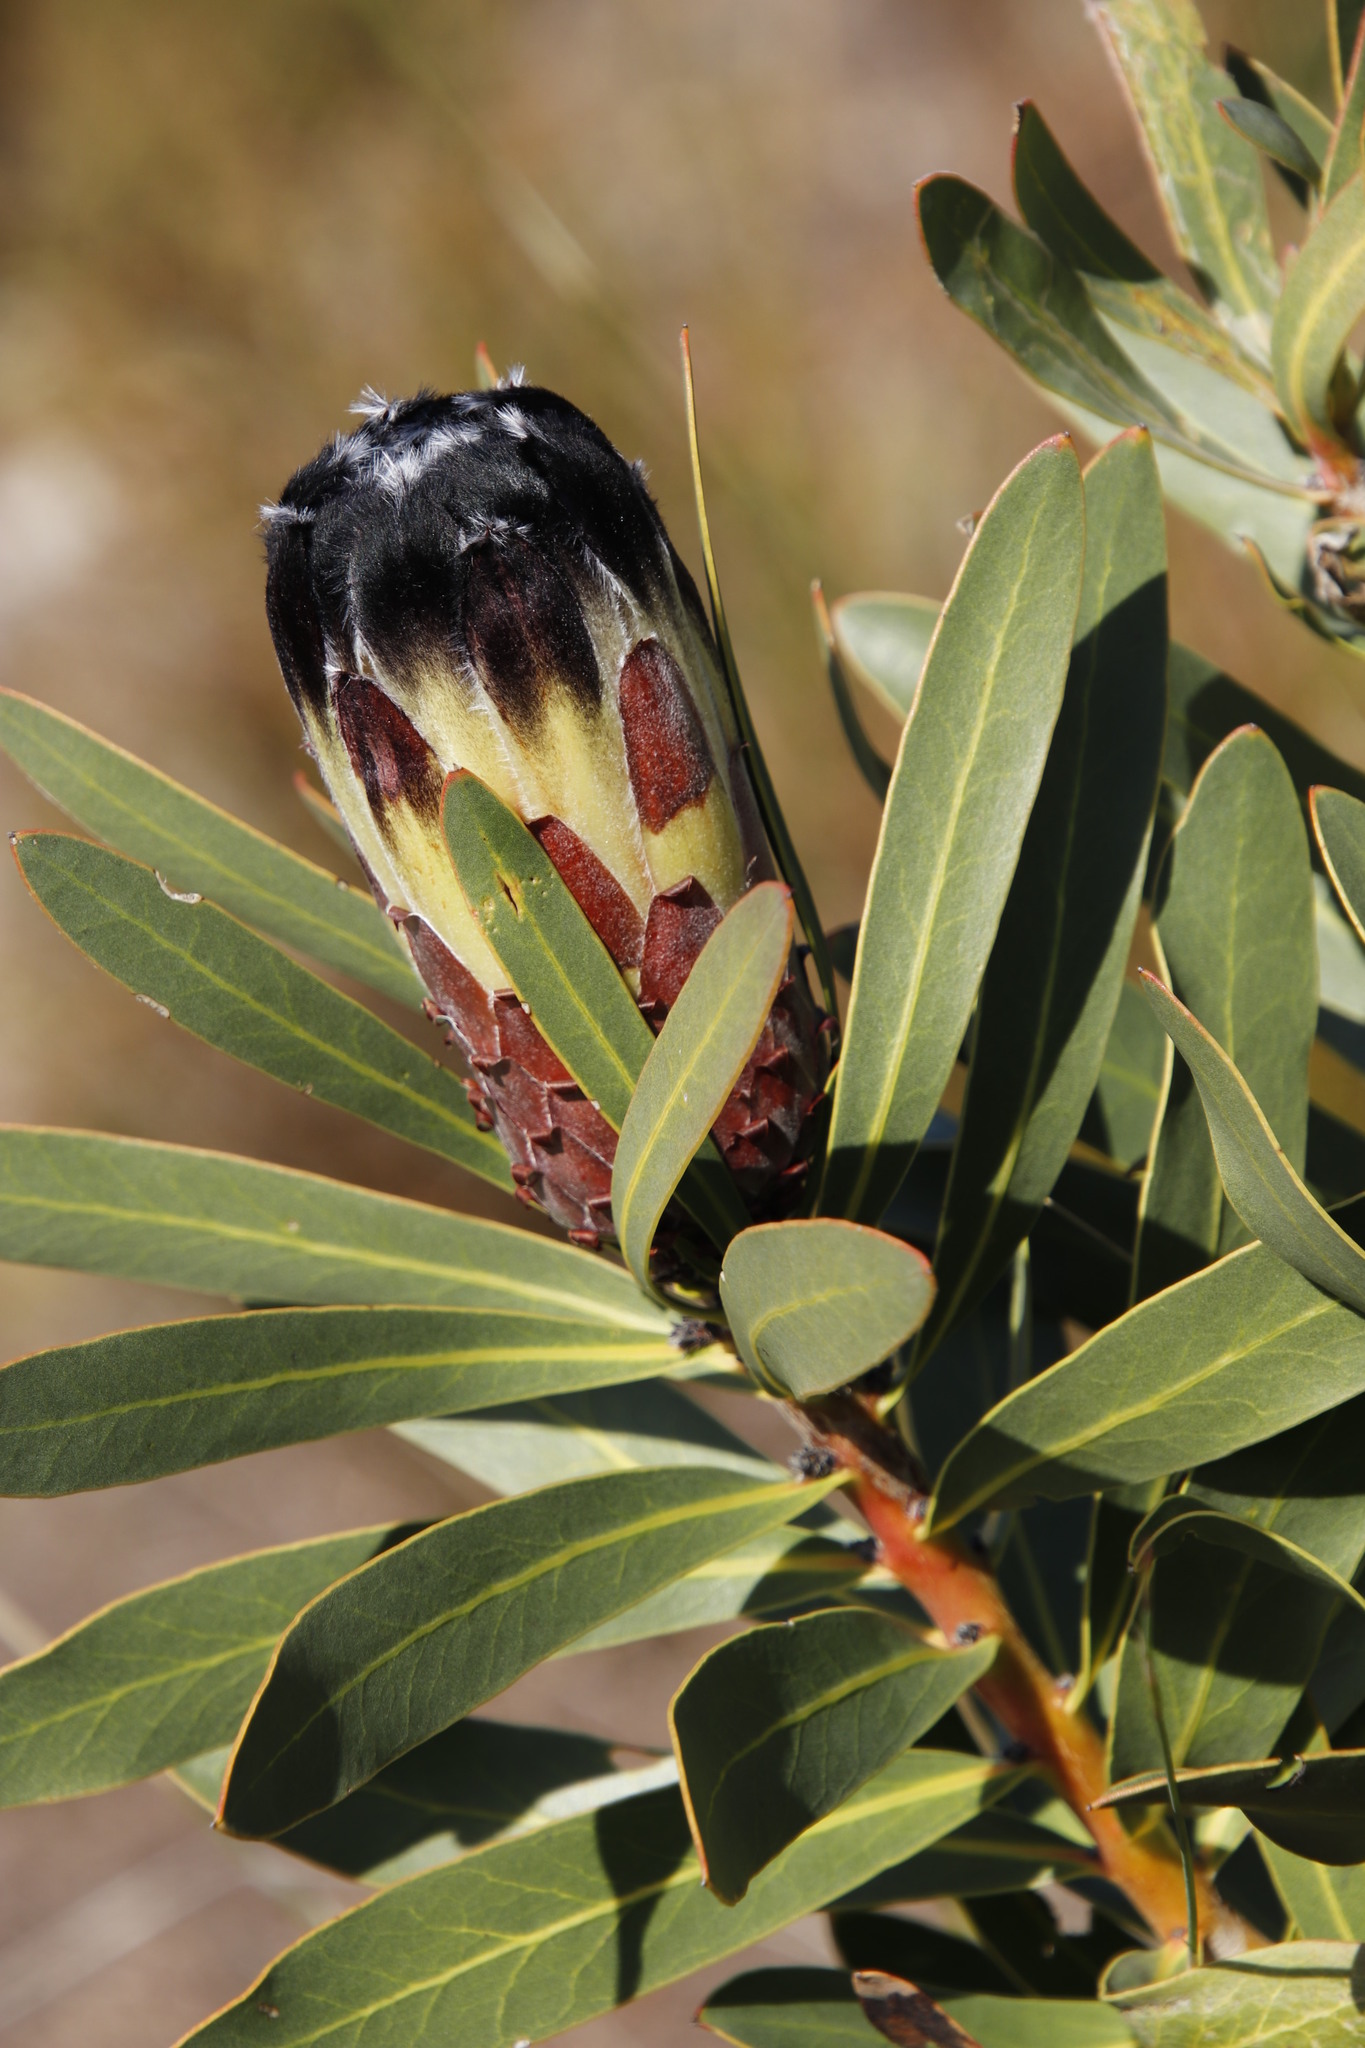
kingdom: Plantae
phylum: Tracheophyta
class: Magnoliopsida
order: Proteales
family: Proteaceae
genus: Protea
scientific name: Protea lepidocarpodendron
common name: Black-bearded protea
